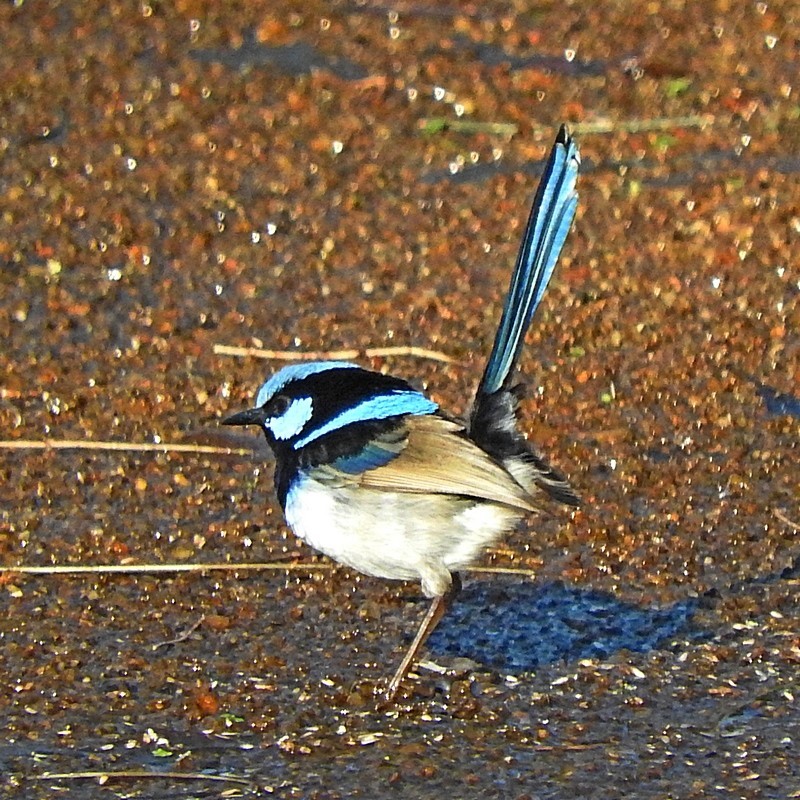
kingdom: Animalia
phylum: Chordata
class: Aves
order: Passeriformes
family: Maluridae
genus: Malurus
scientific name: Malurus cyaneus
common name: Superb fairywren
